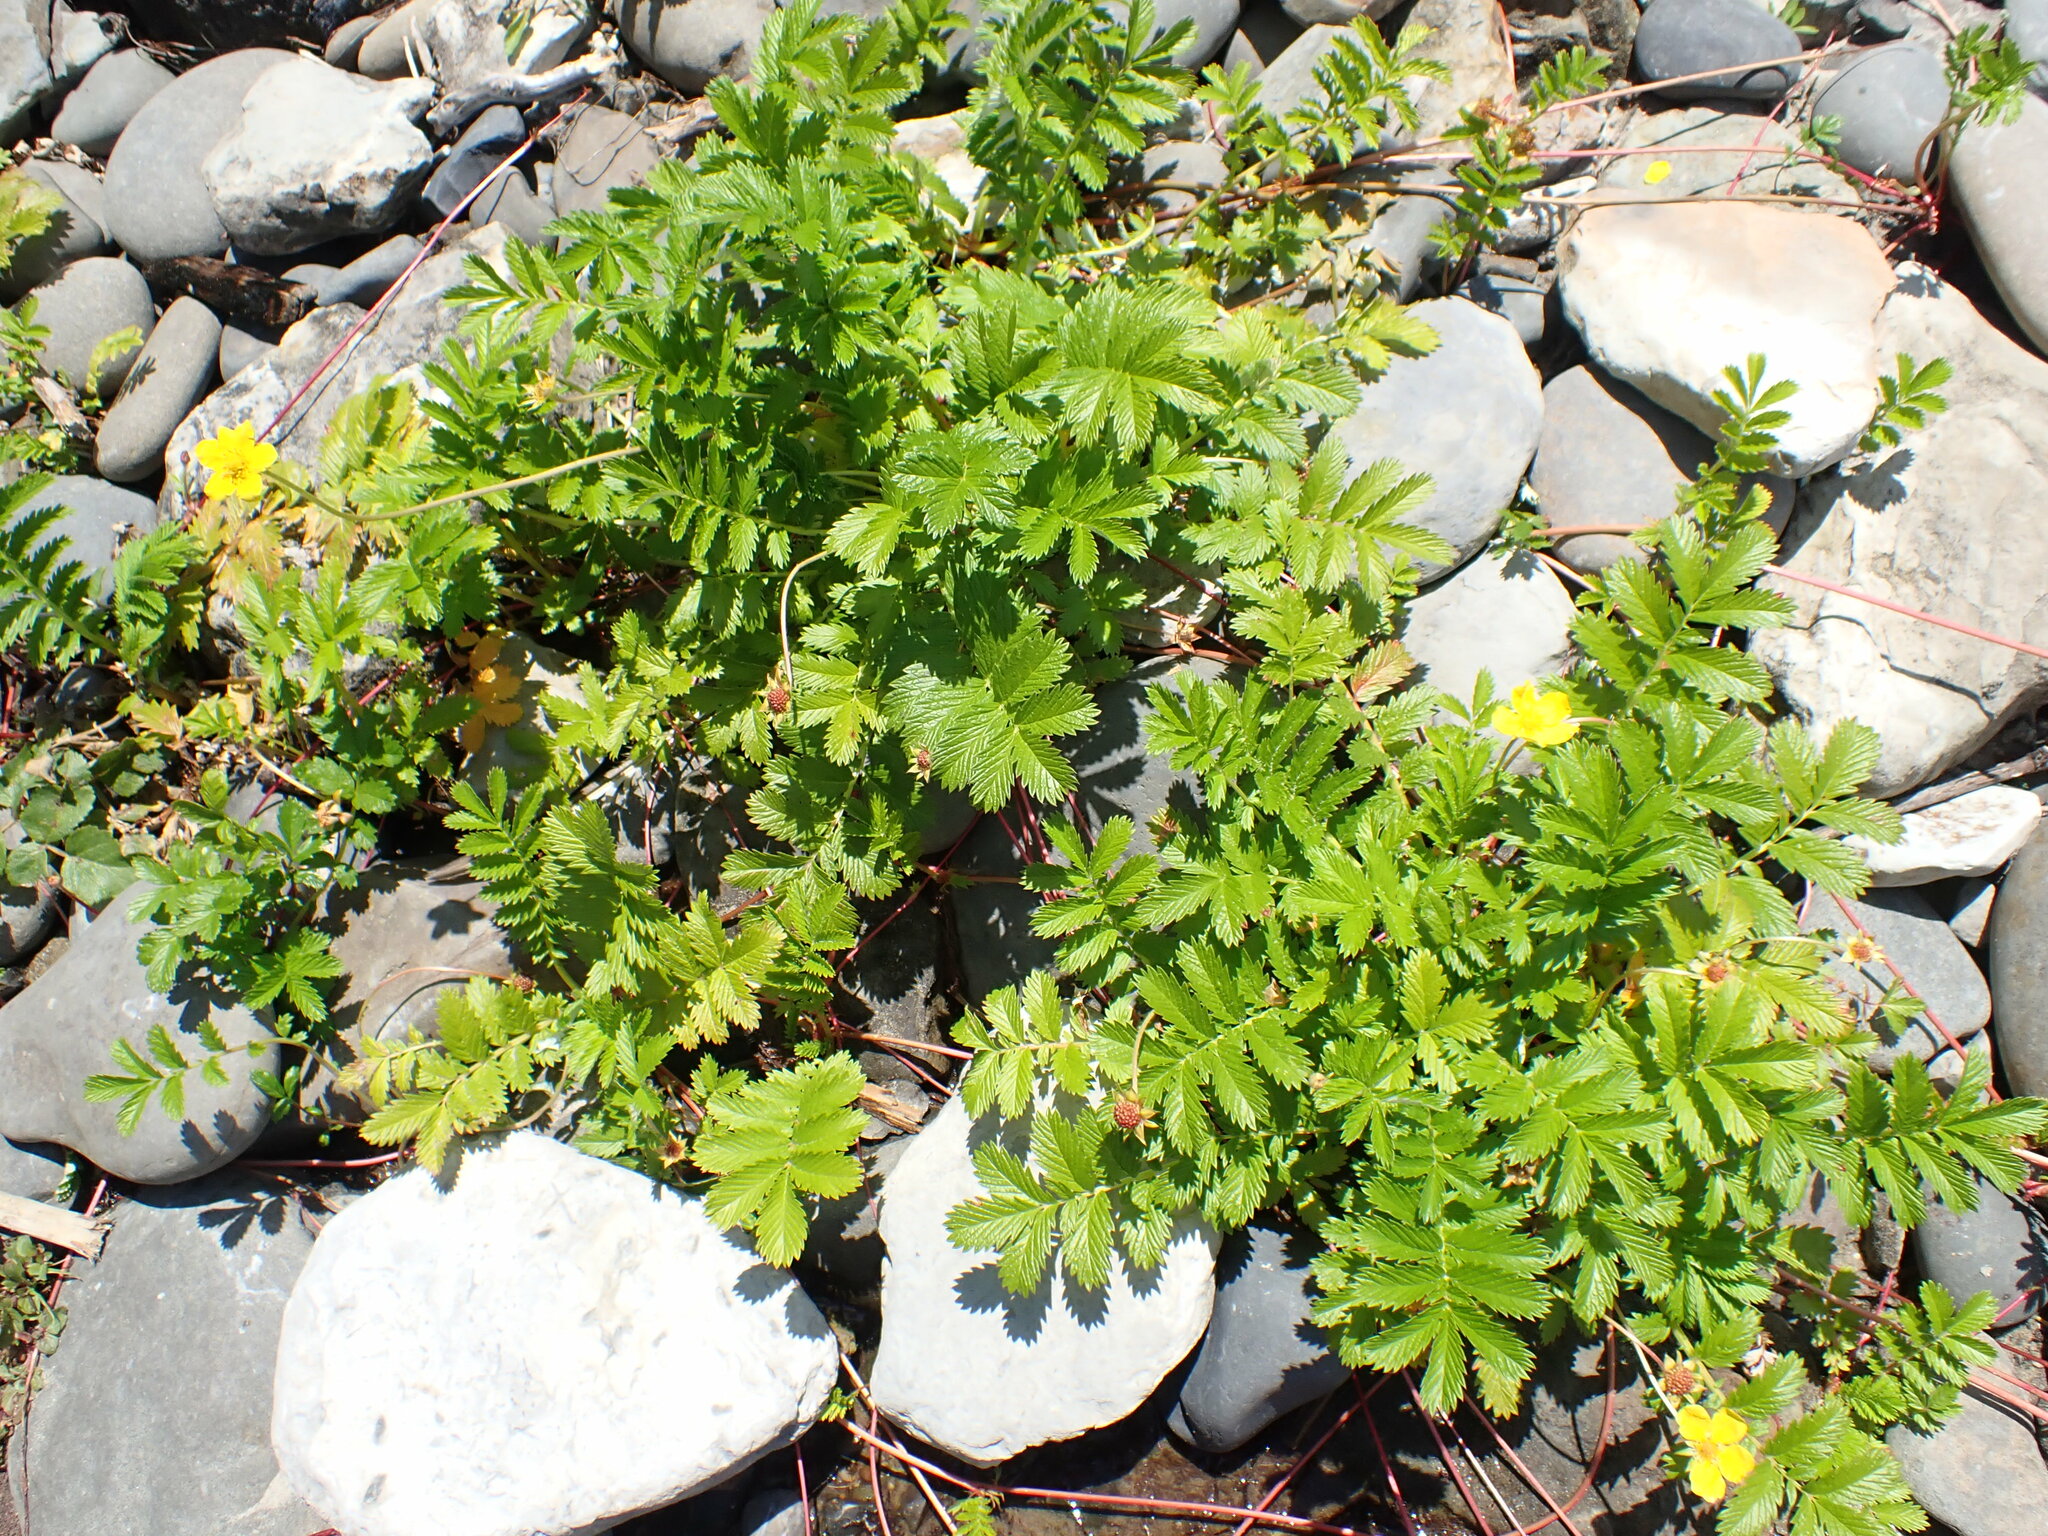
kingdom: Plantae
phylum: Tracheophyta
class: Magnoliopsida
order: Rosales
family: Rosaceae
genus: Argentina
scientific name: Argentina anserina
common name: Common silverweed
